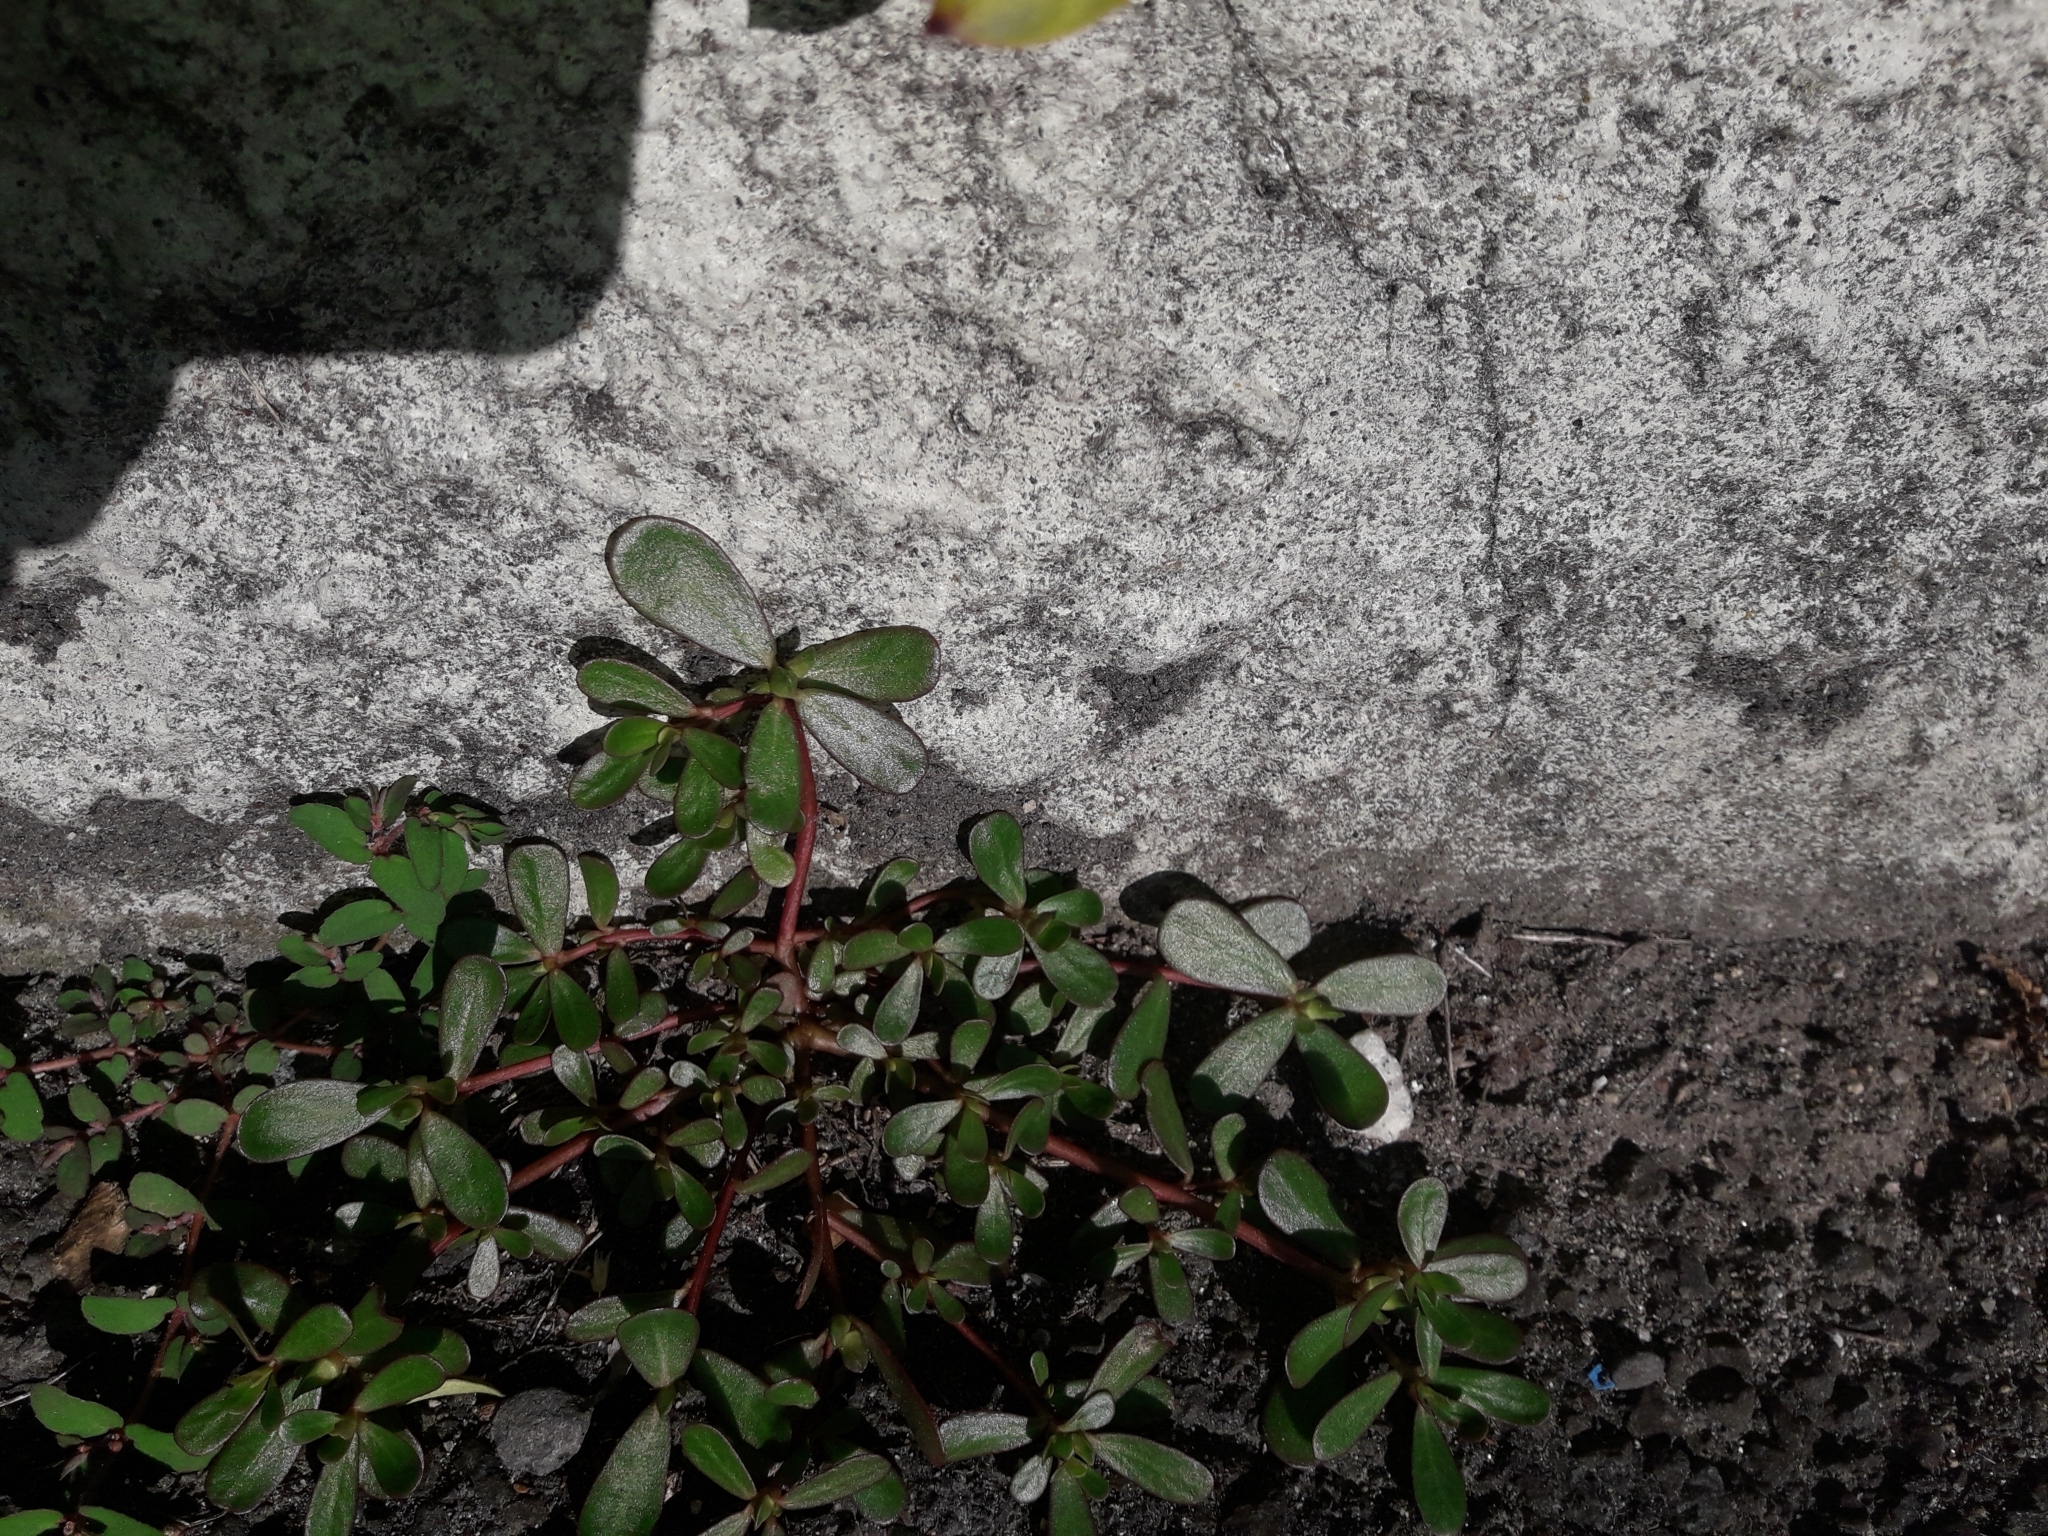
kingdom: Plantae
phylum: Tracheophyta
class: Magnoliopsida
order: Caryophyllales
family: Portulacaceae
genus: Portulaca
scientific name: Portulaca oleracea
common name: Common purslane
